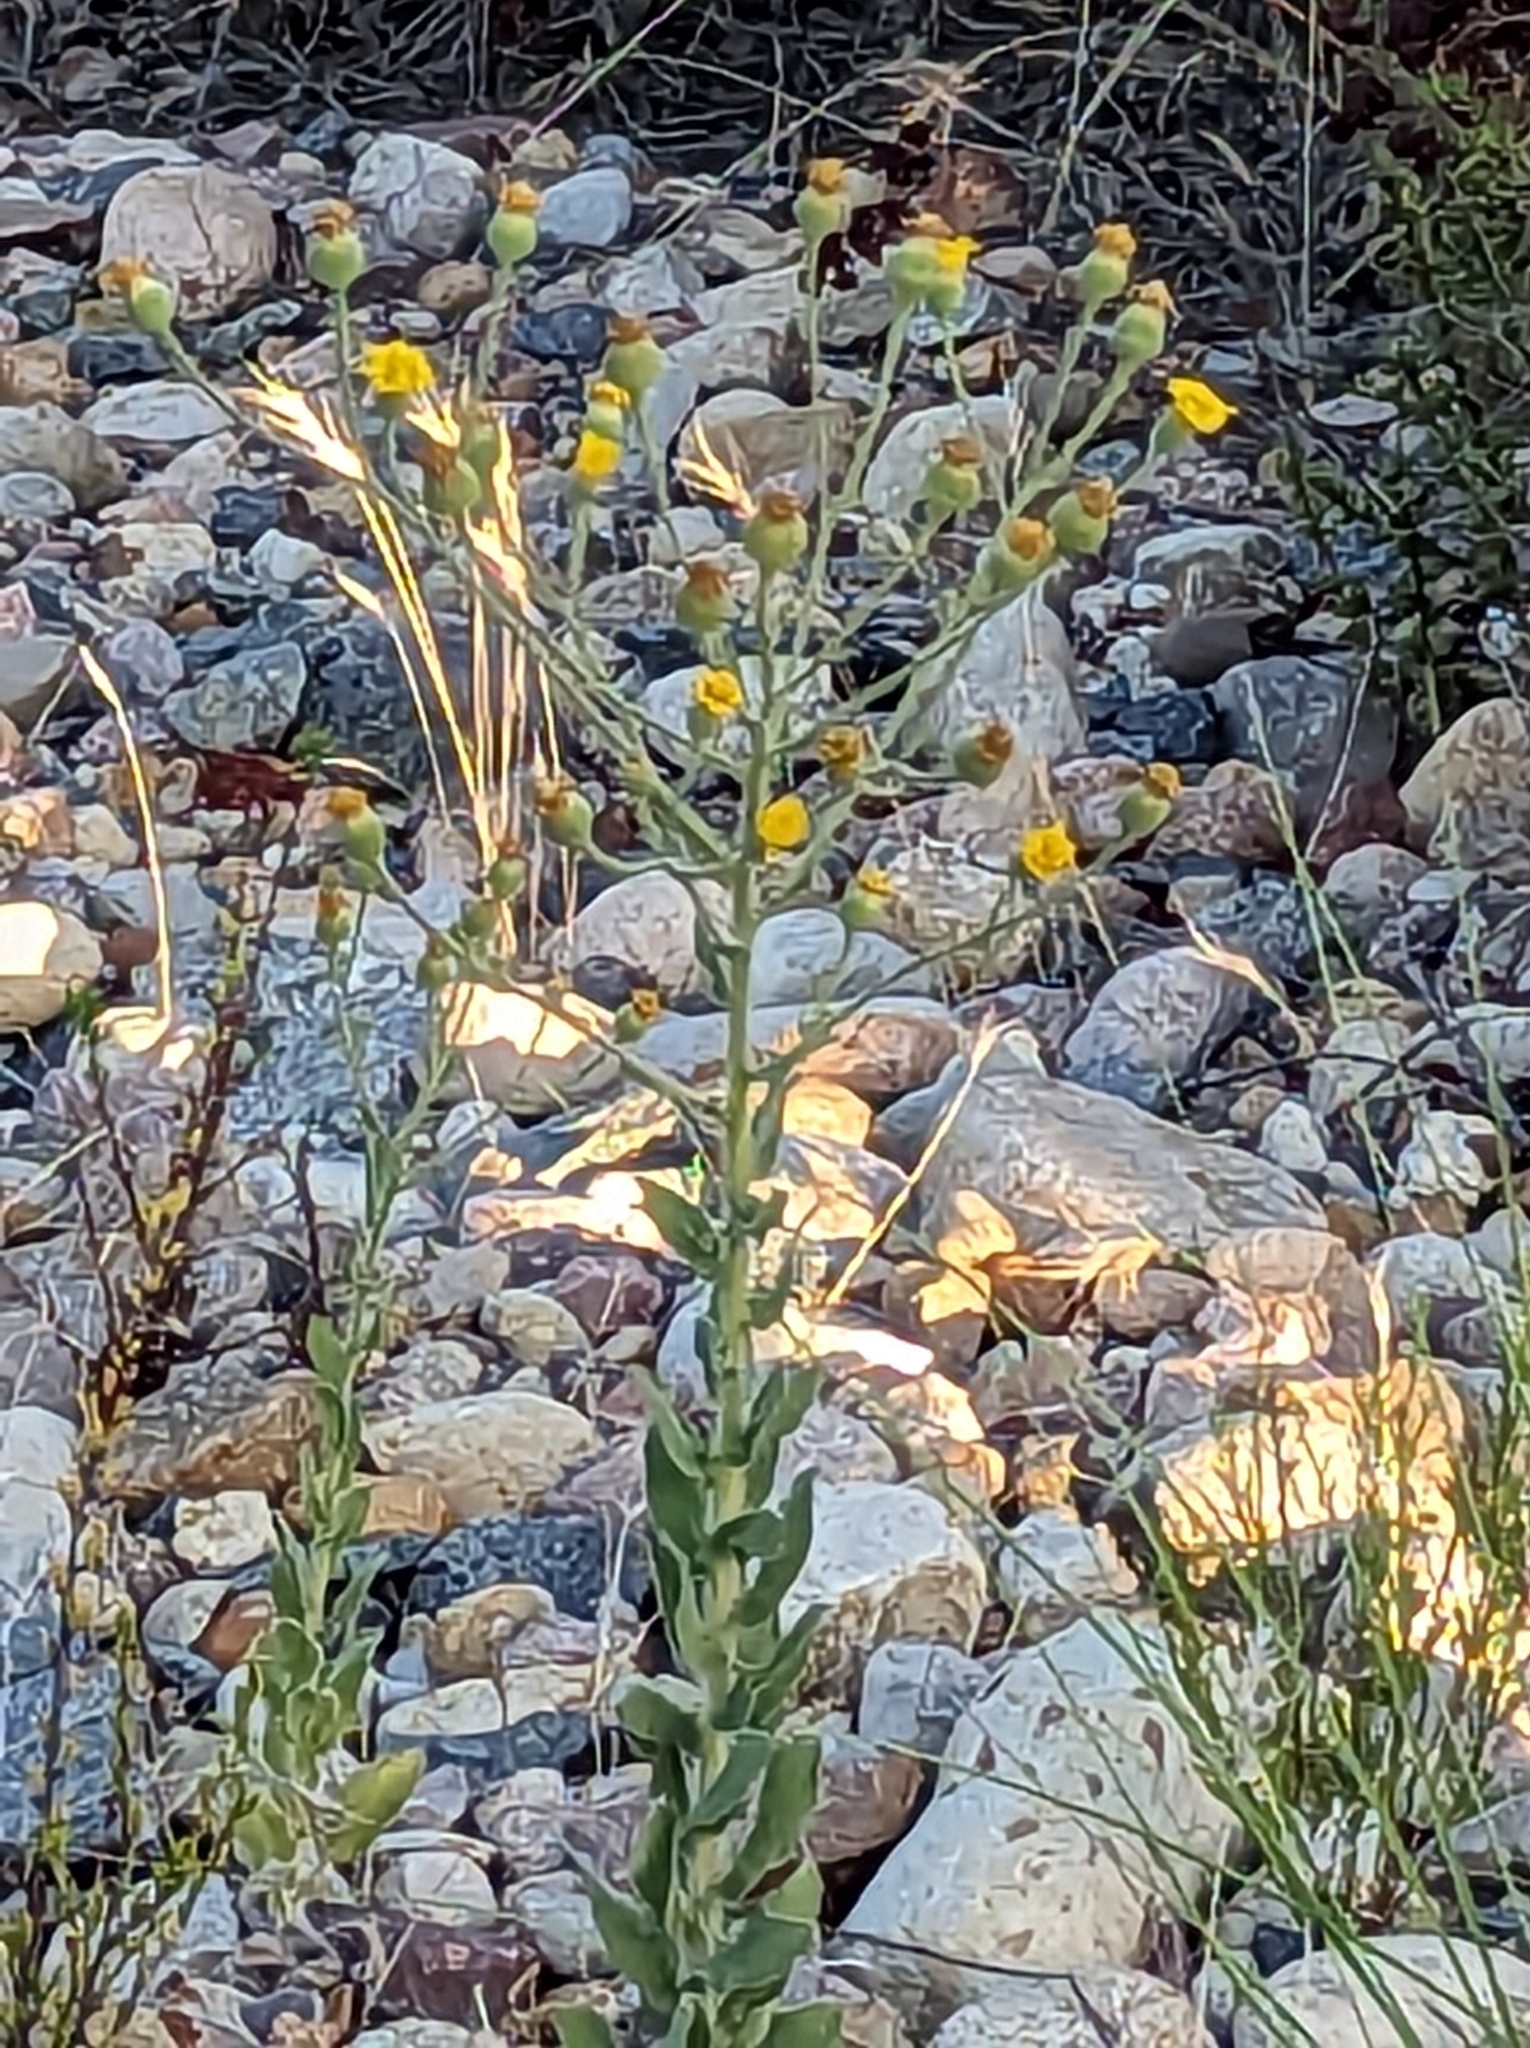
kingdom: Plantae
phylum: Tracheophyta
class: Magnoliopsida
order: Asterales
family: Asteraceae
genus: Heterotheca
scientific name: Heterotheca grandiflora
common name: Telegraphweed
